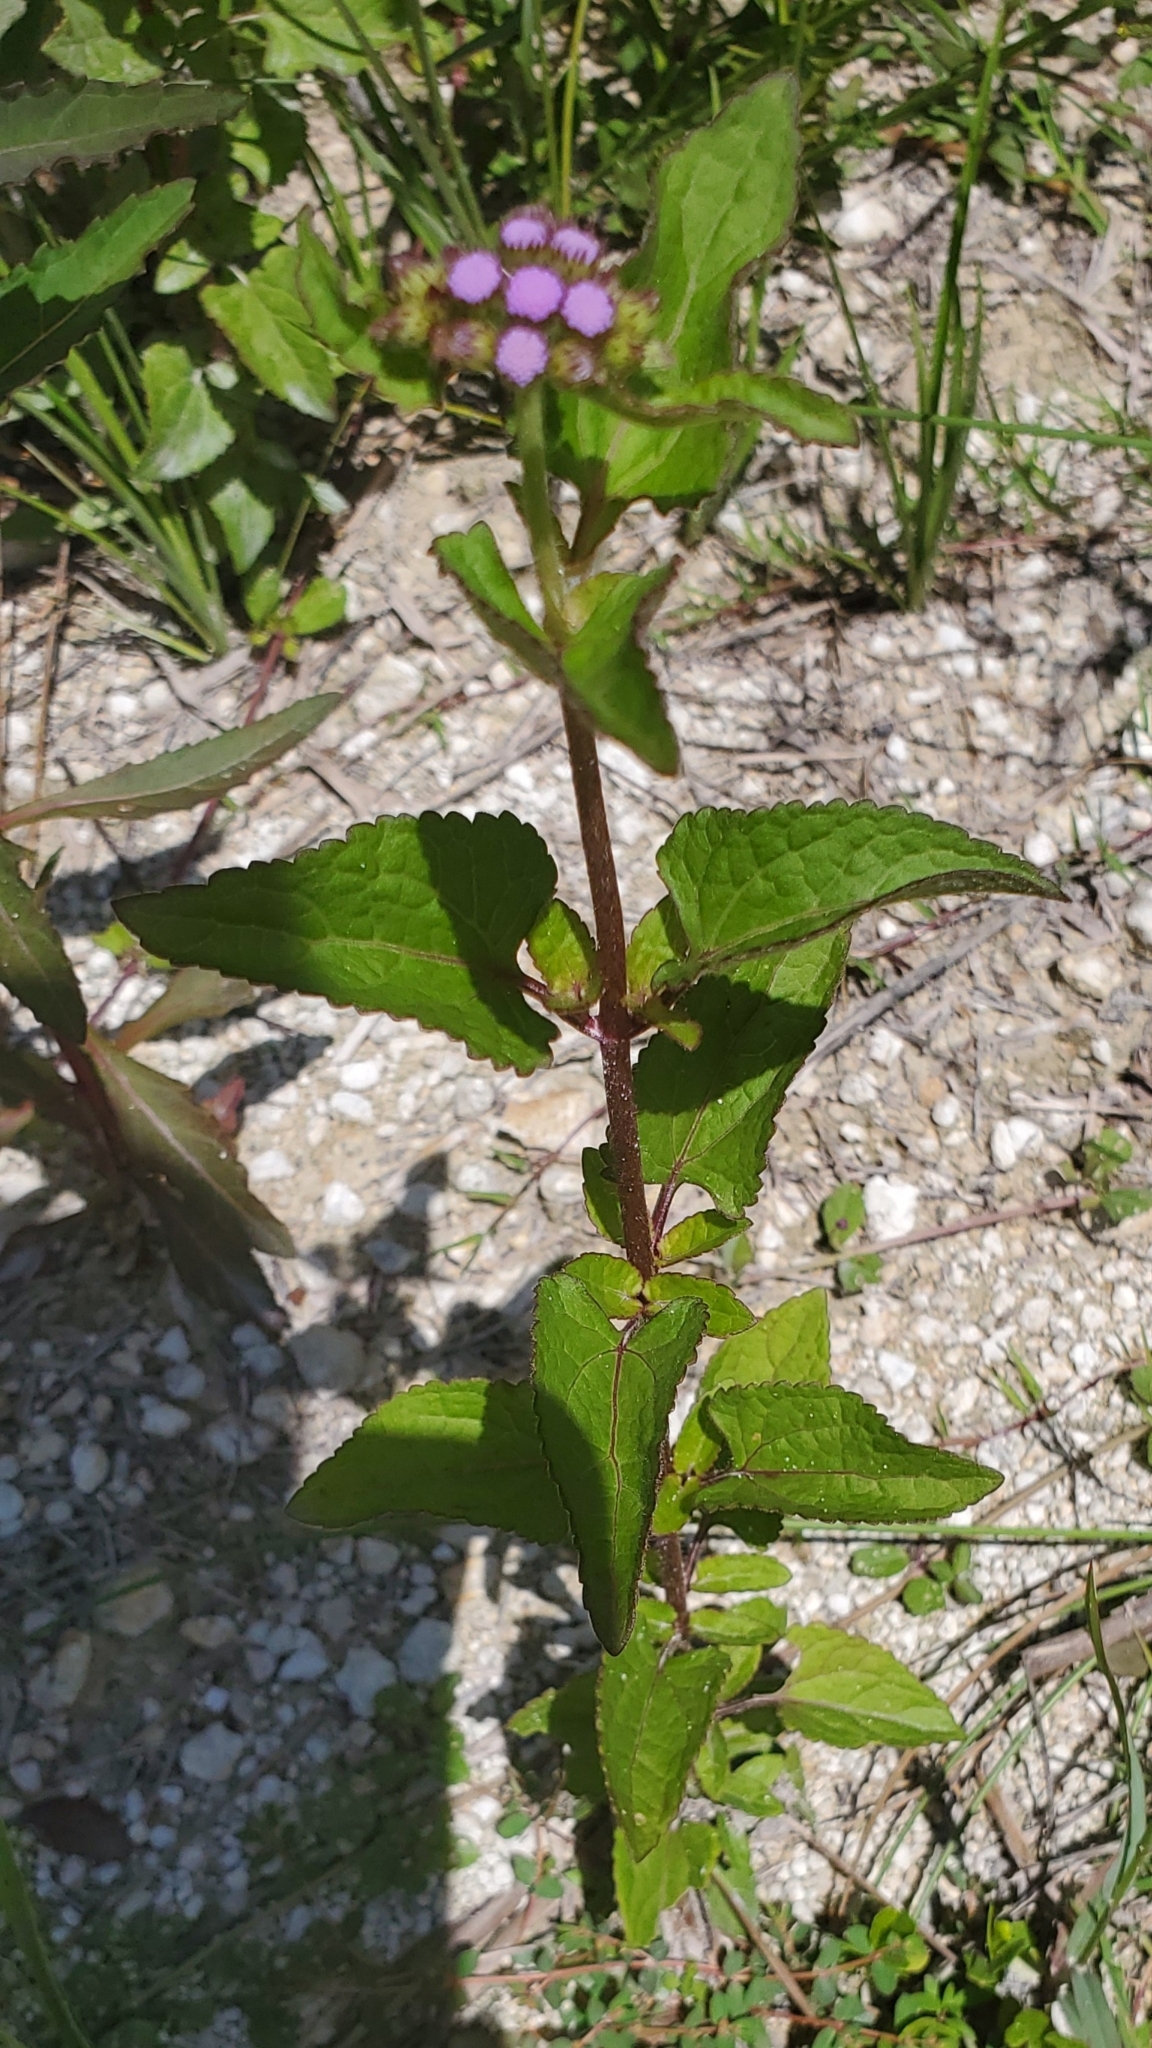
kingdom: Plantae
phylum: Tracheophyta
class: Magnoliopsida
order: Asterales
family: Asteraceae
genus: Conoclinium
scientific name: Conoclinium coelestinum
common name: Blue mistflower
